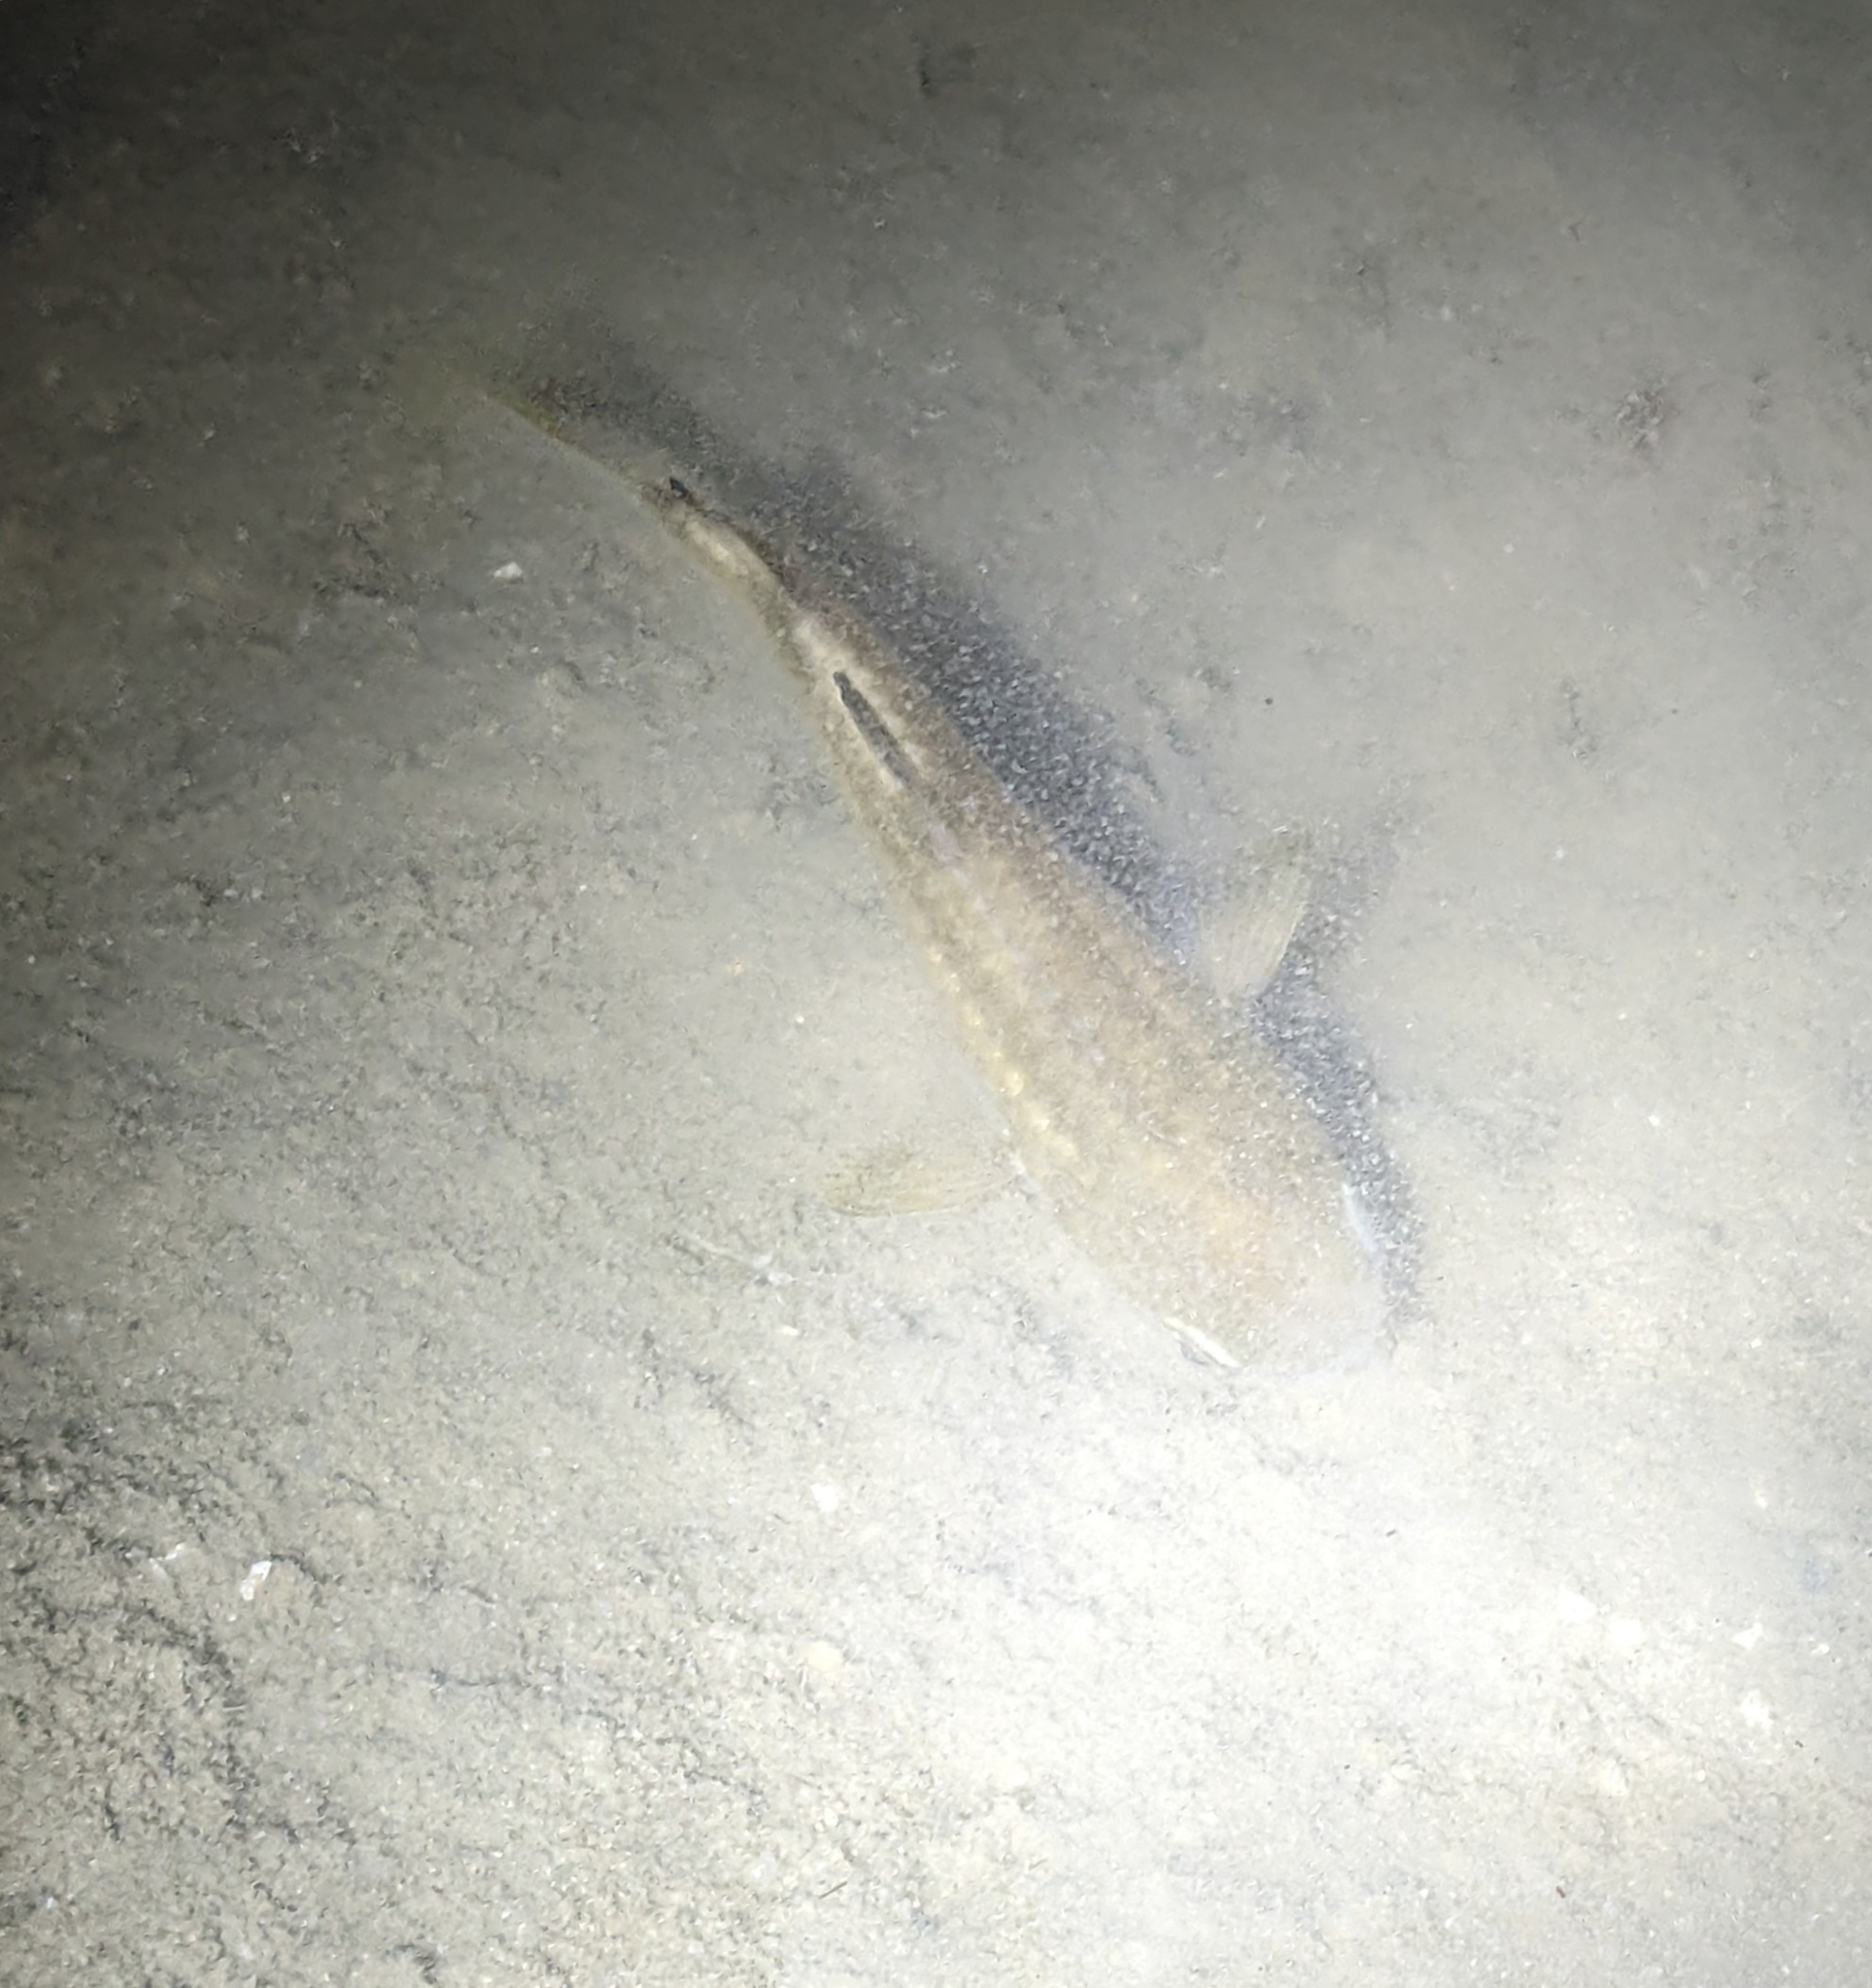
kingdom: Animalia
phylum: Chordata
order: Mugiliformes
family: Mugilidae
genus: Ellochelon
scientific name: Ellochelon vaigiensis
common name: Squaretail mullet
